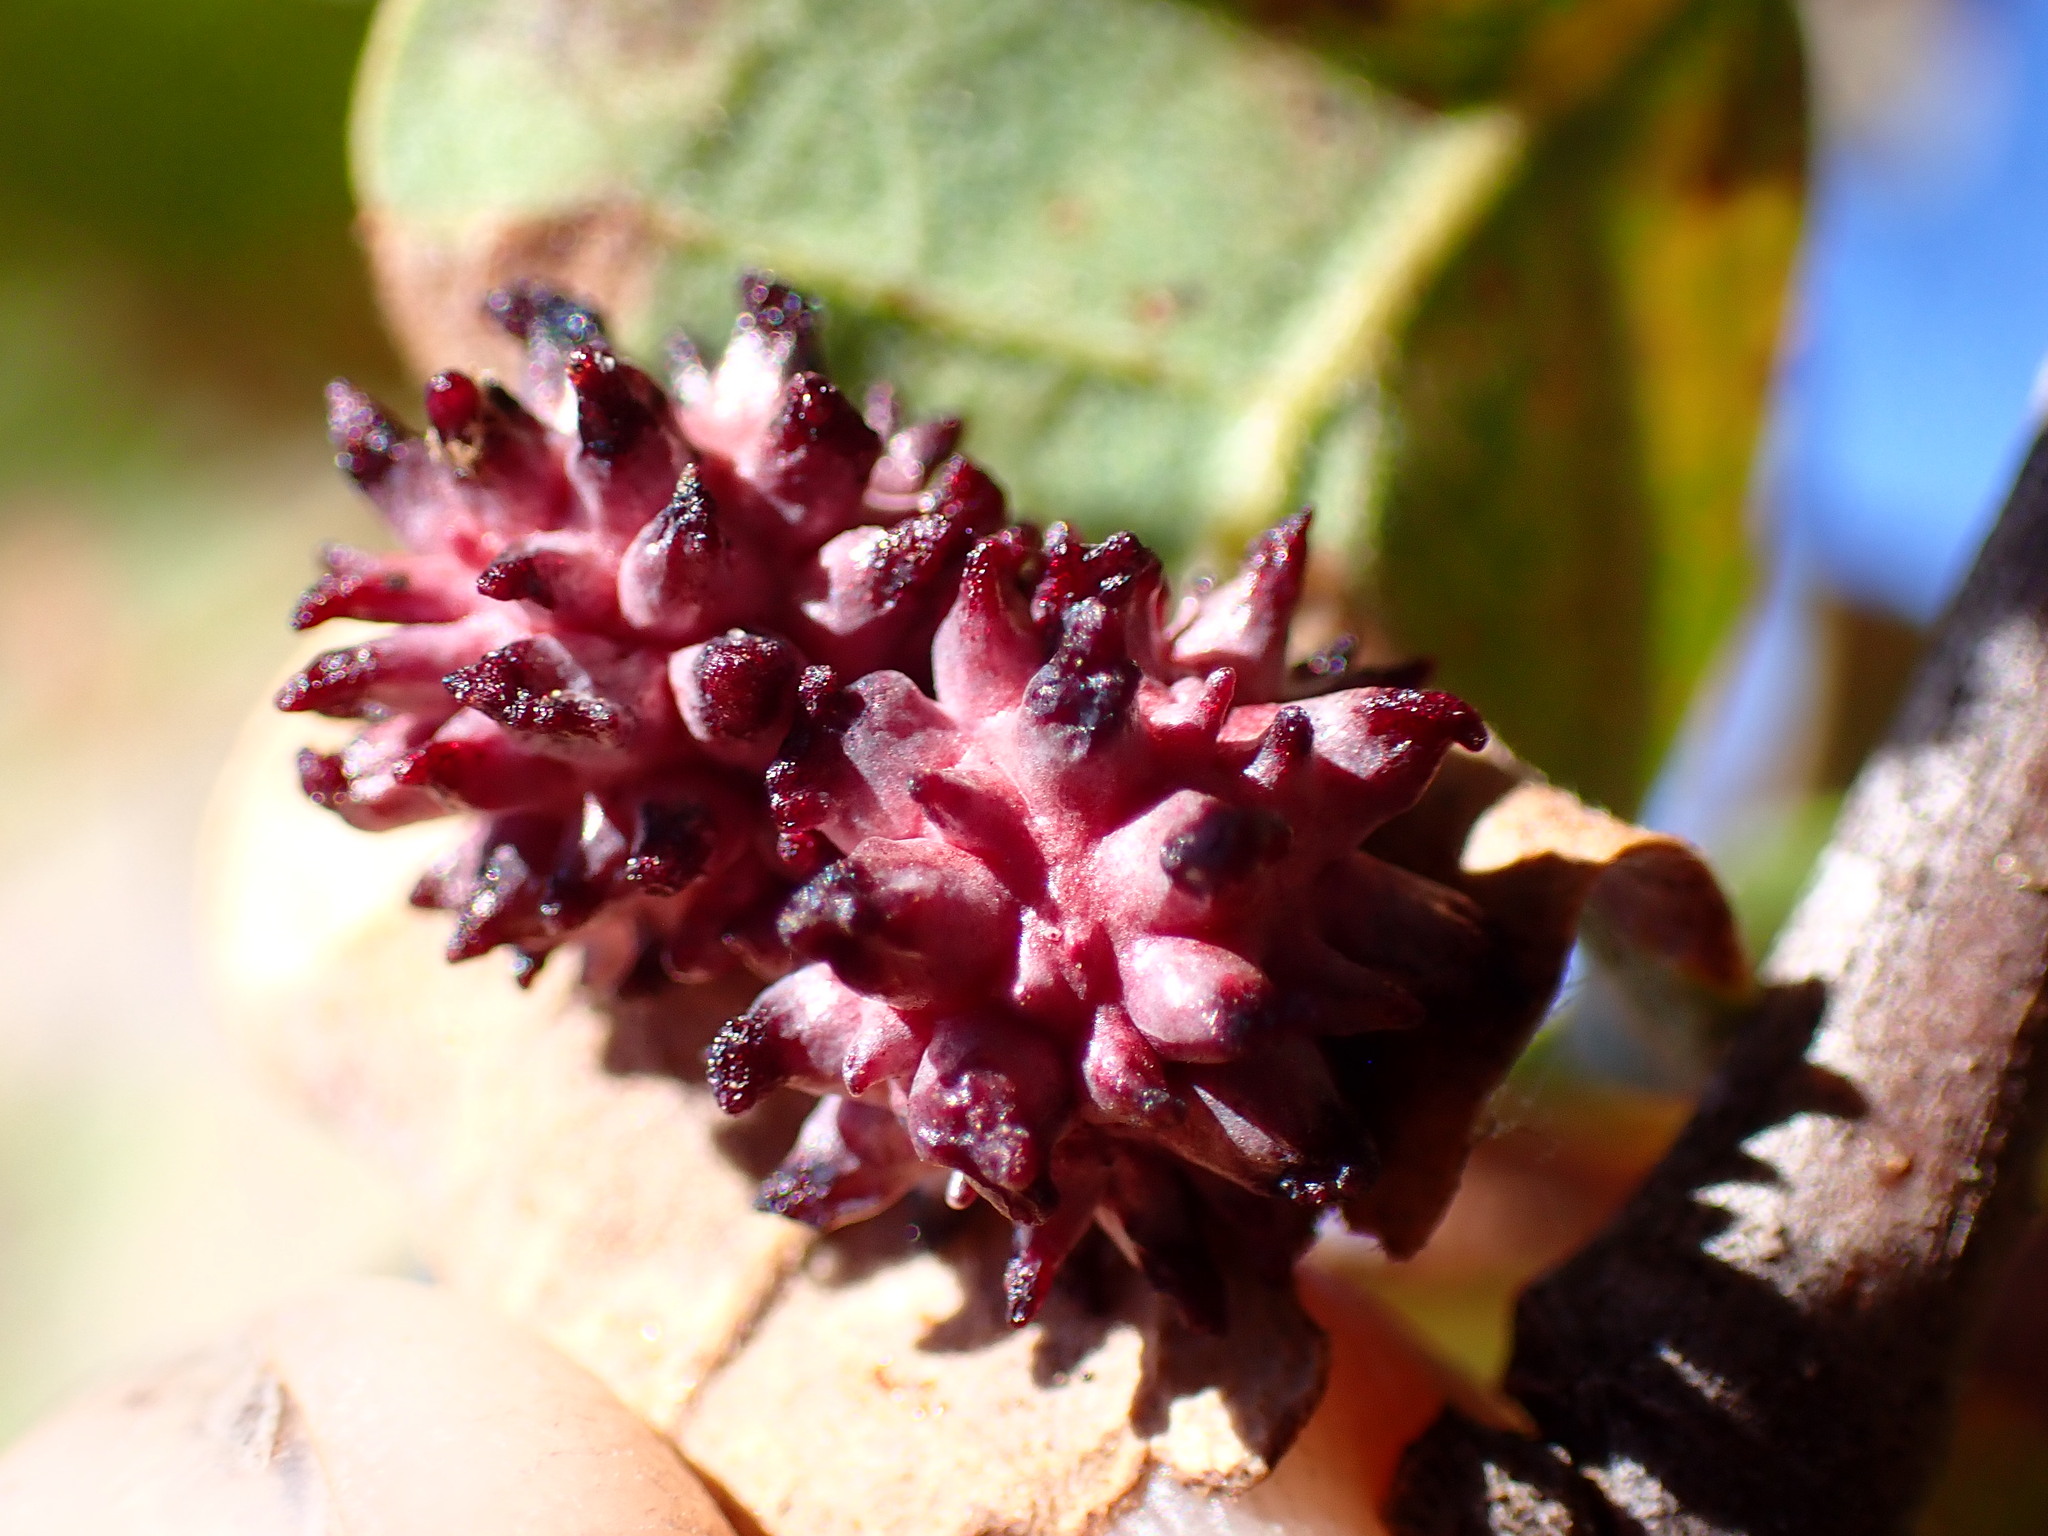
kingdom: Animalia
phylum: Arthropoda
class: Insecta
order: Hymenoptera
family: Cynipidae
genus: Cynips
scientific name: Cynips
